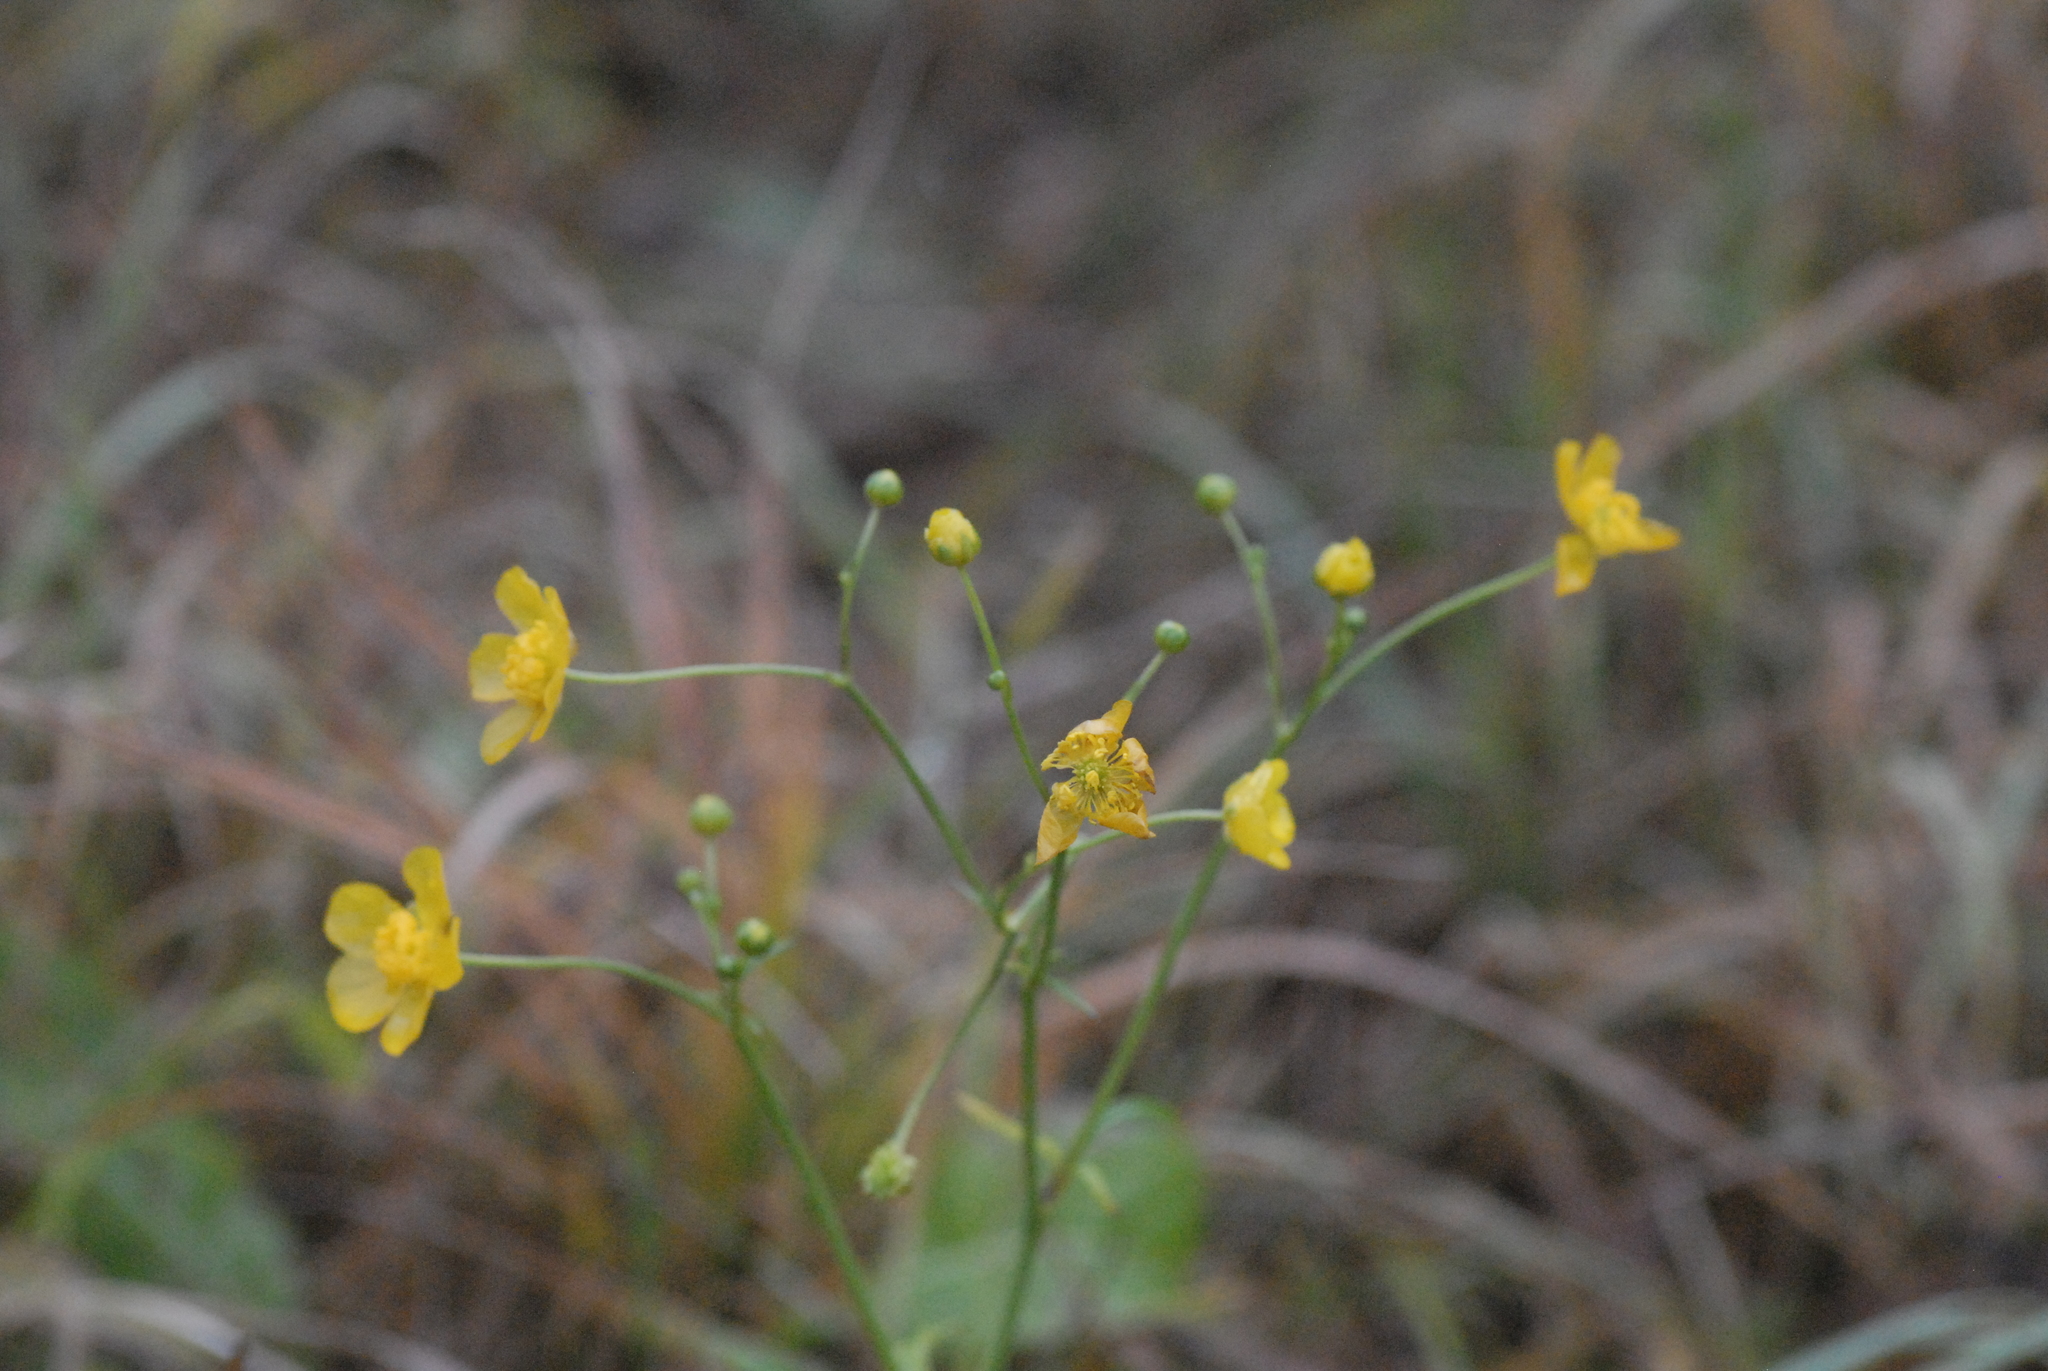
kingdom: Plantae
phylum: Tracheophyta
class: Magnoliopsida
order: Ranunculales
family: Ranunculaceae
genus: Ranunculus
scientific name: Ranunculus acris
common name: Meadow buttercup
